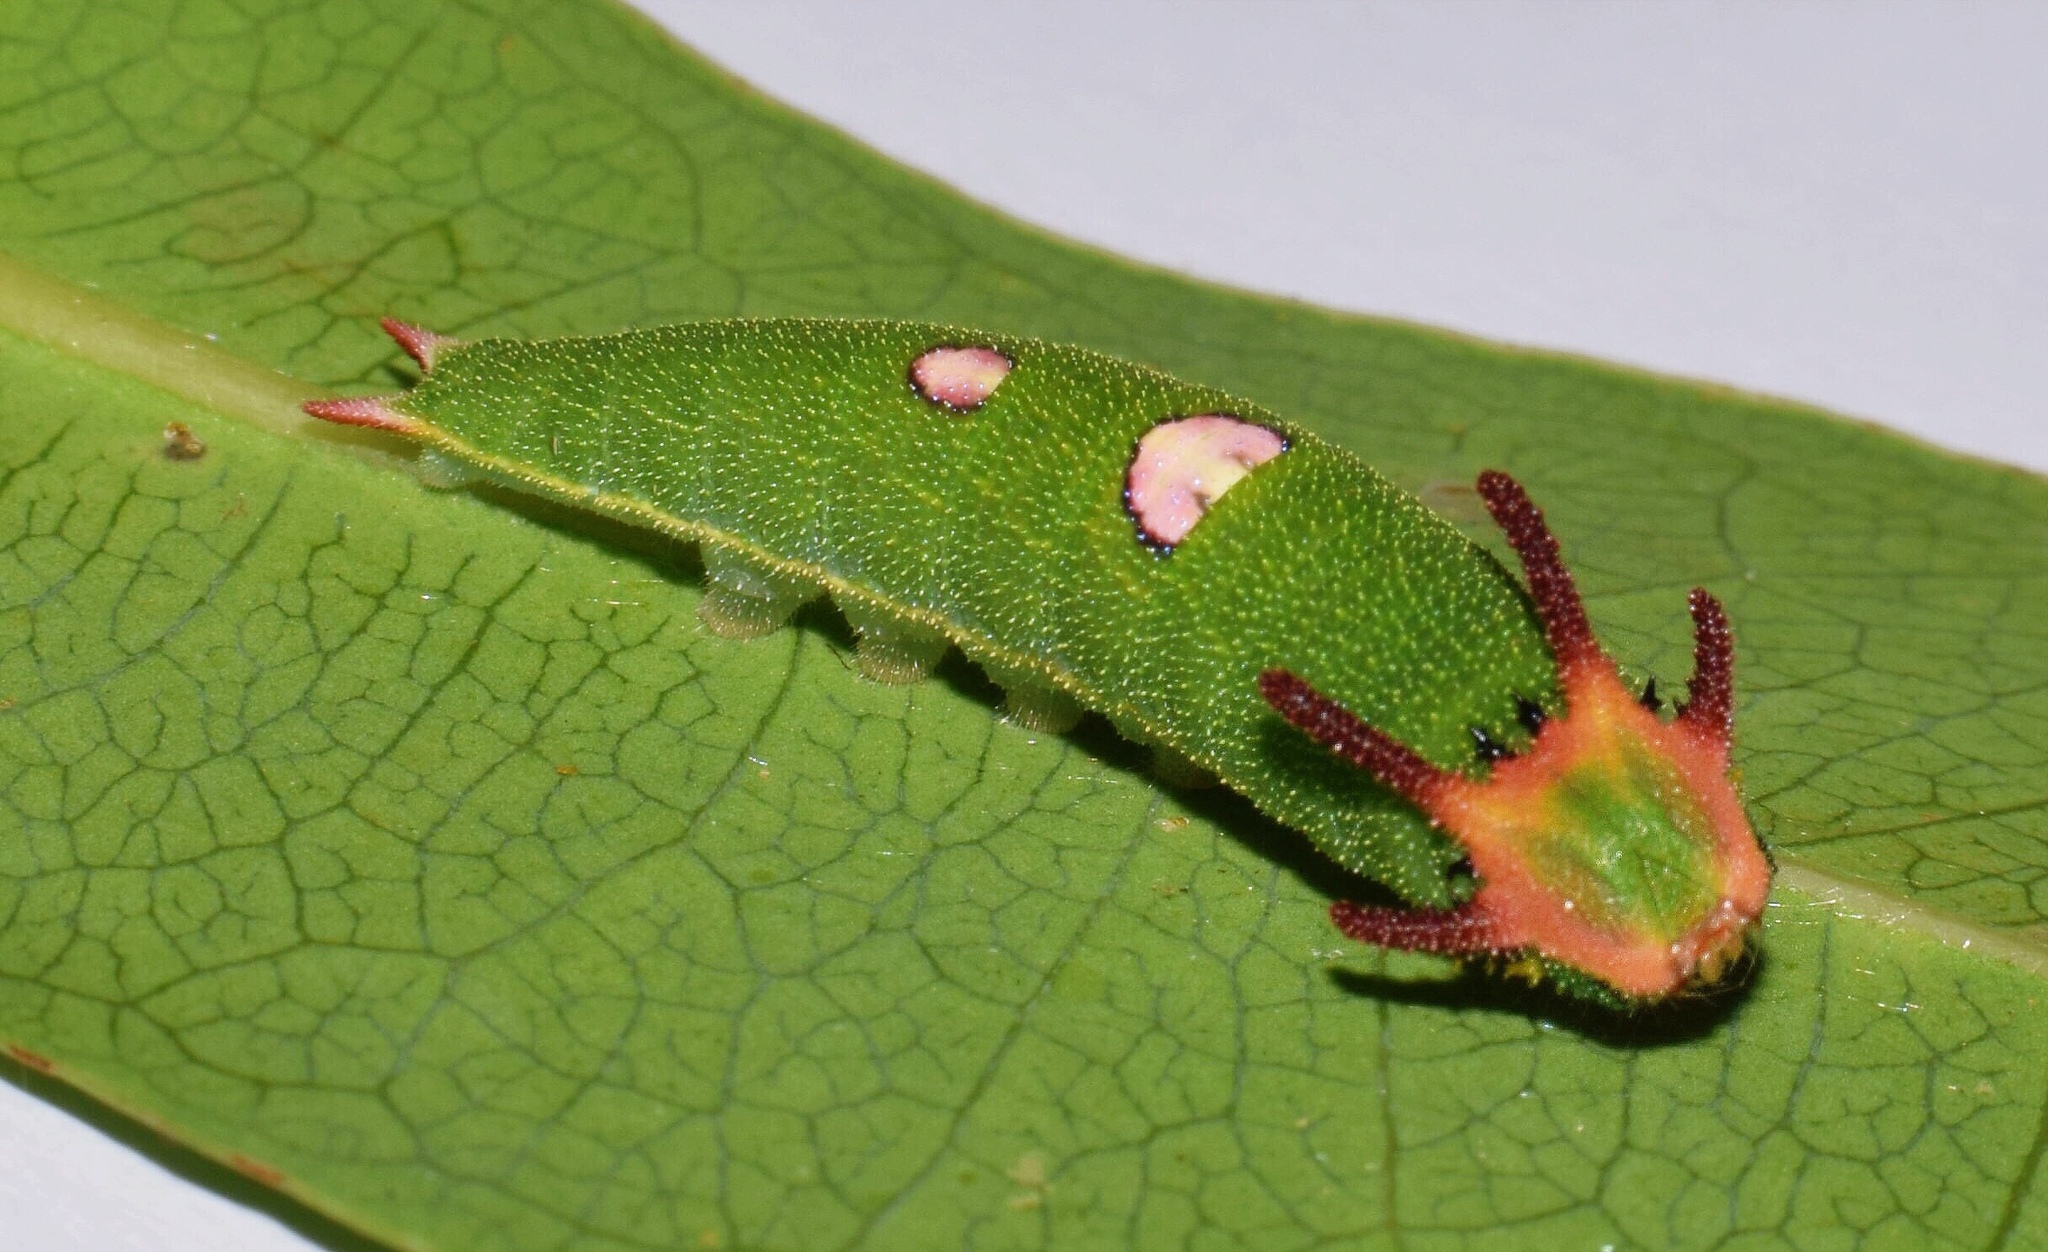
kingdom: Animalia
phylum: Arthropoda
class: Insecta
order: Lepidoptera
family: Nymphalidae
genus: Charaxes
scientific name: Charaxes druceanus
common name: Silver-barred charaxes
